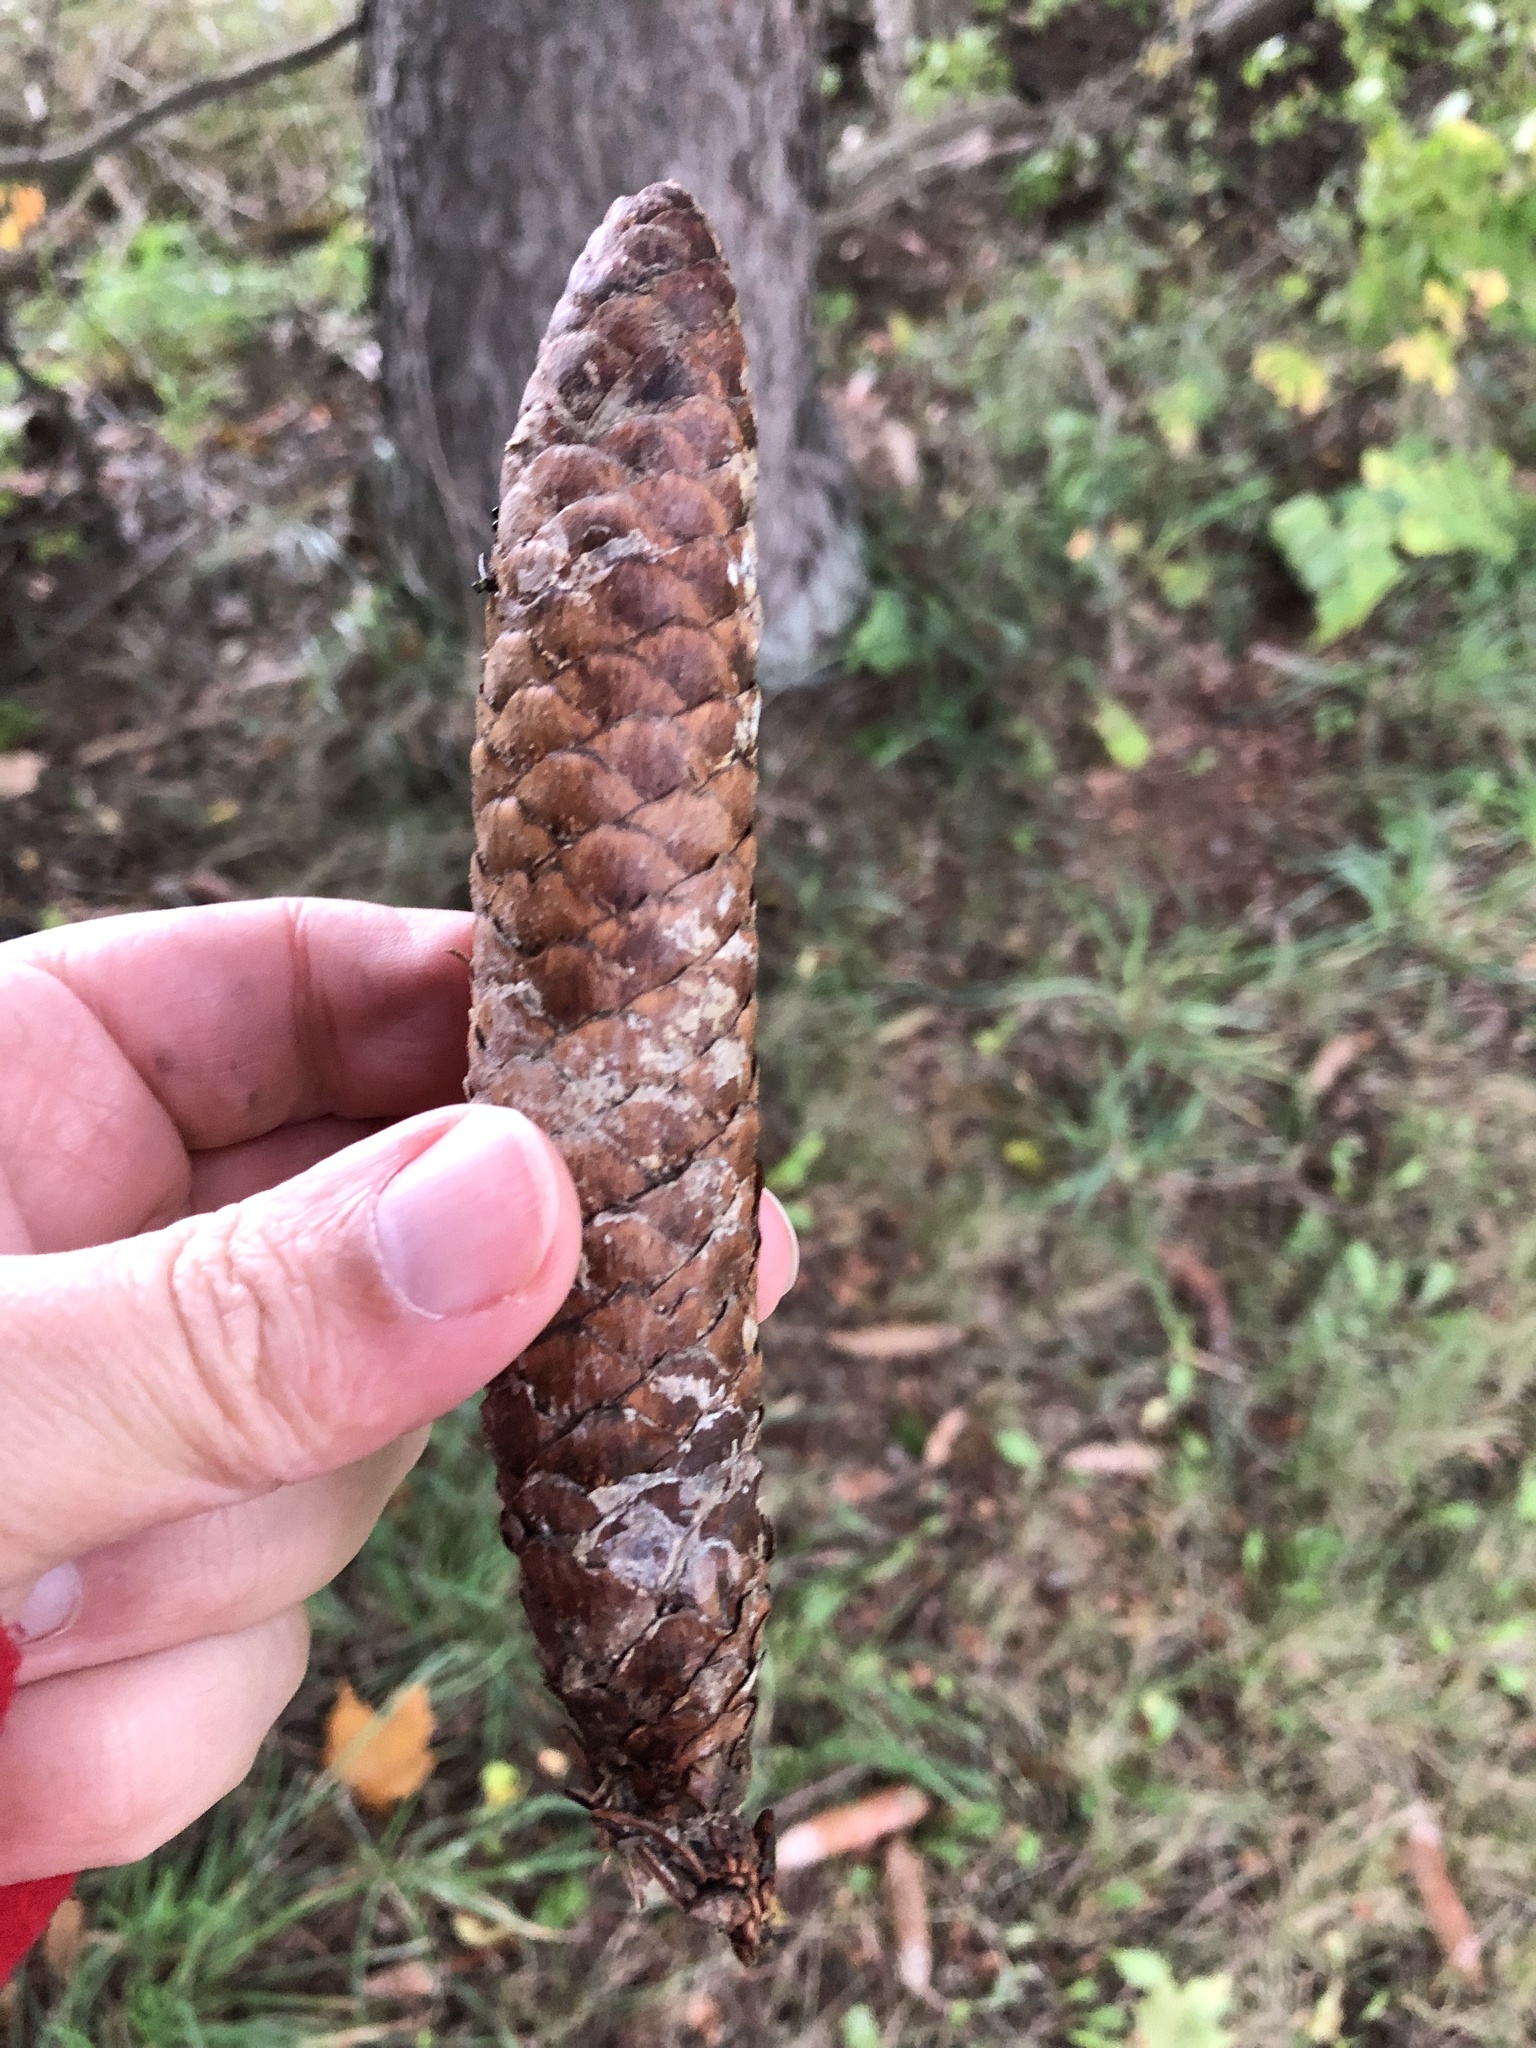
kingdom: Plantae
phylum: Tracheophyta
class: Pinopsida
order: Pinales
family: Pinaceae
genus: Picea
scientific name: Picea abies
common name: Norway spruce
